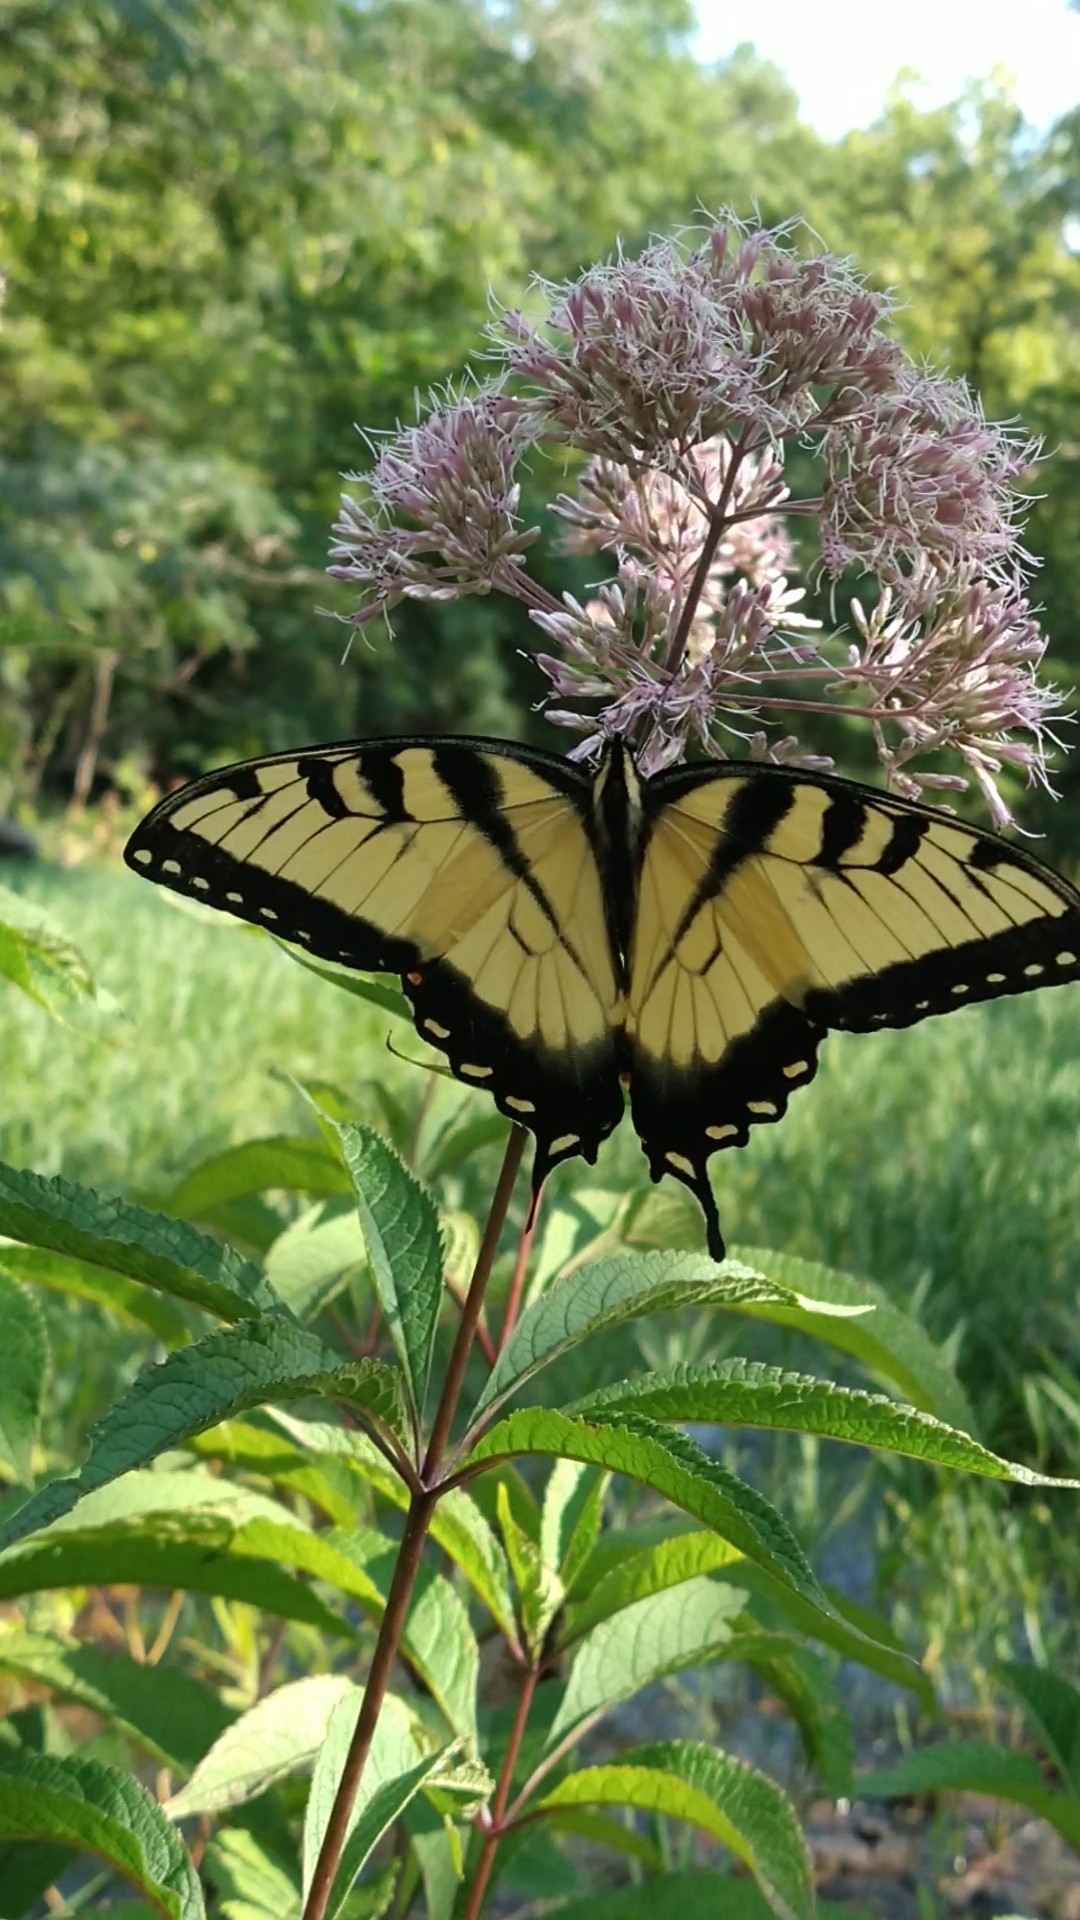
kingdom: Animalia
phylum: Arthropoda
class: Insecta
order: Lepidoptera
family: Papilionidae
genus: Papilio
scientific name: Papilio glaucus
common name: Tiger swallowtail
